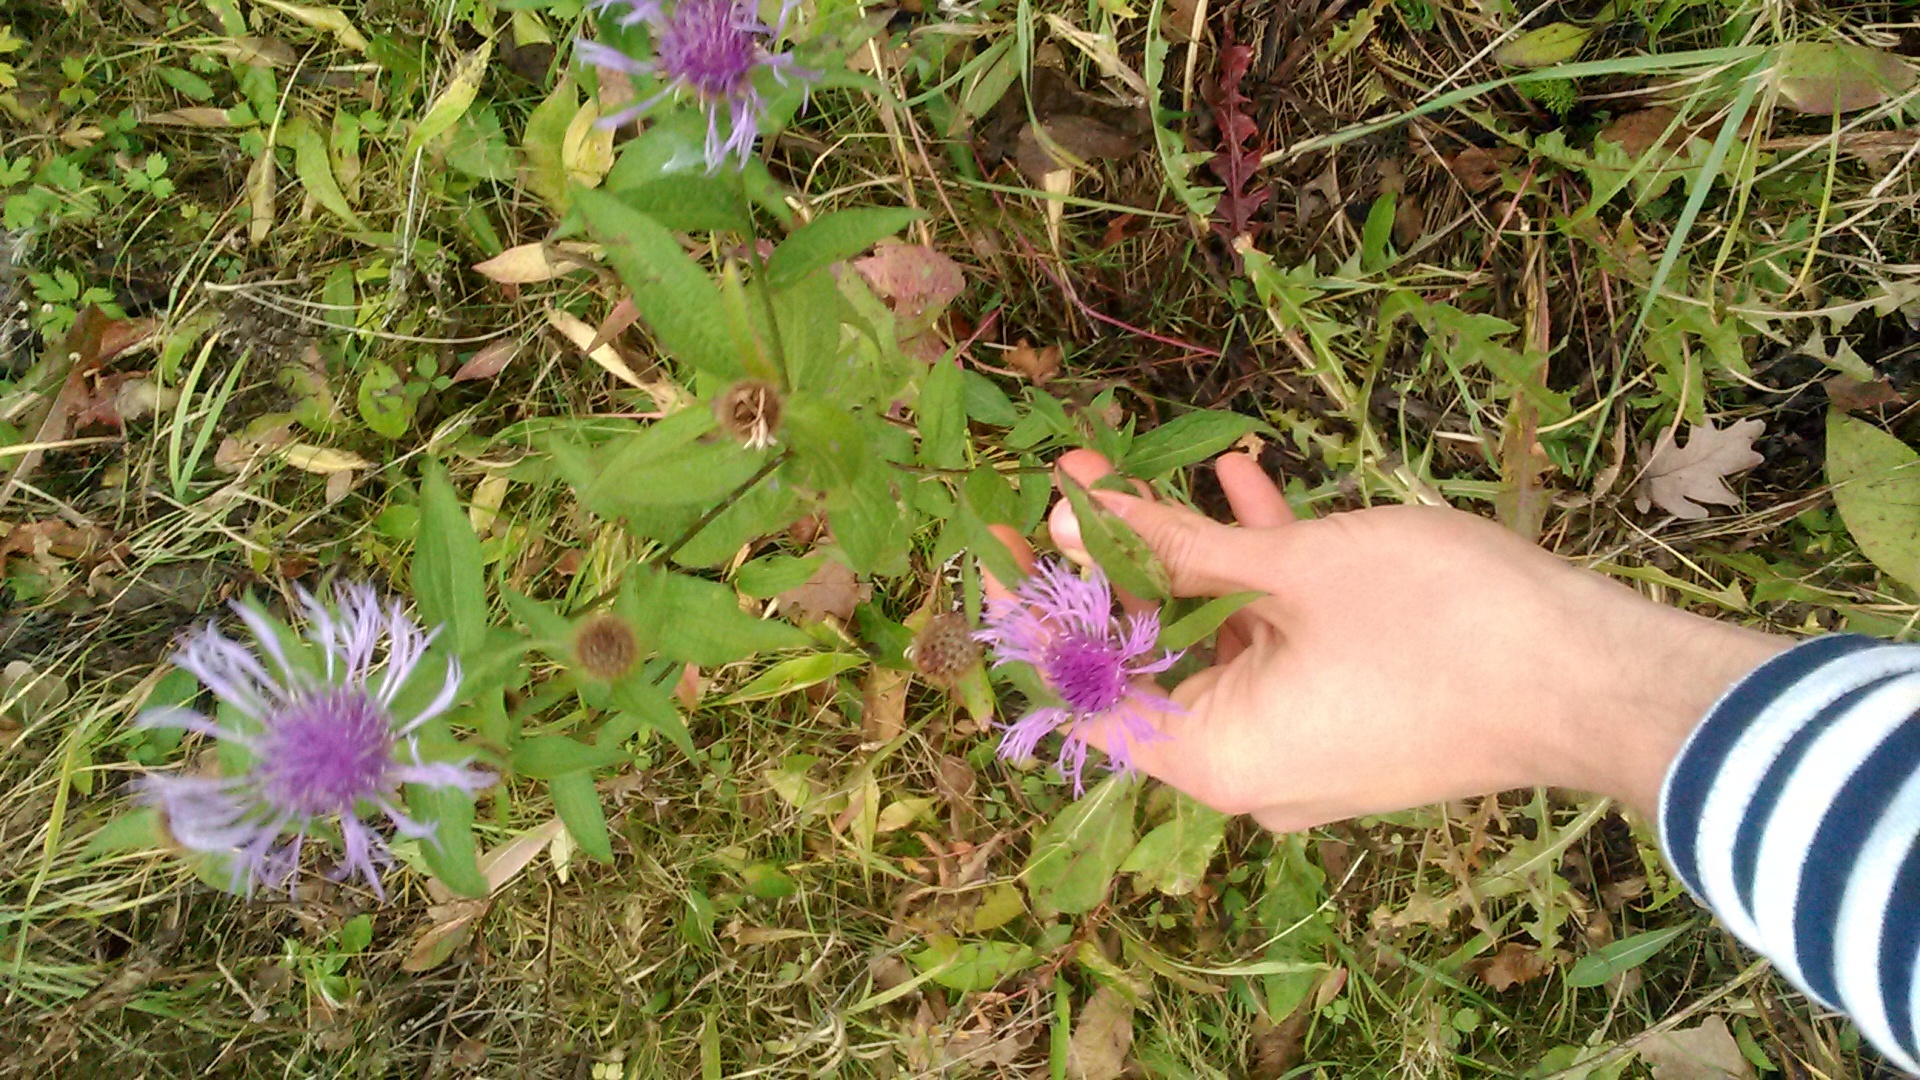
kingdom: Plantae
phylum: Tracheophyta
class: Magnoliopsida
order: Asterales
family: Asteraceae
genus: Centaurea
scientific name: Centaurea pseudophrygia
